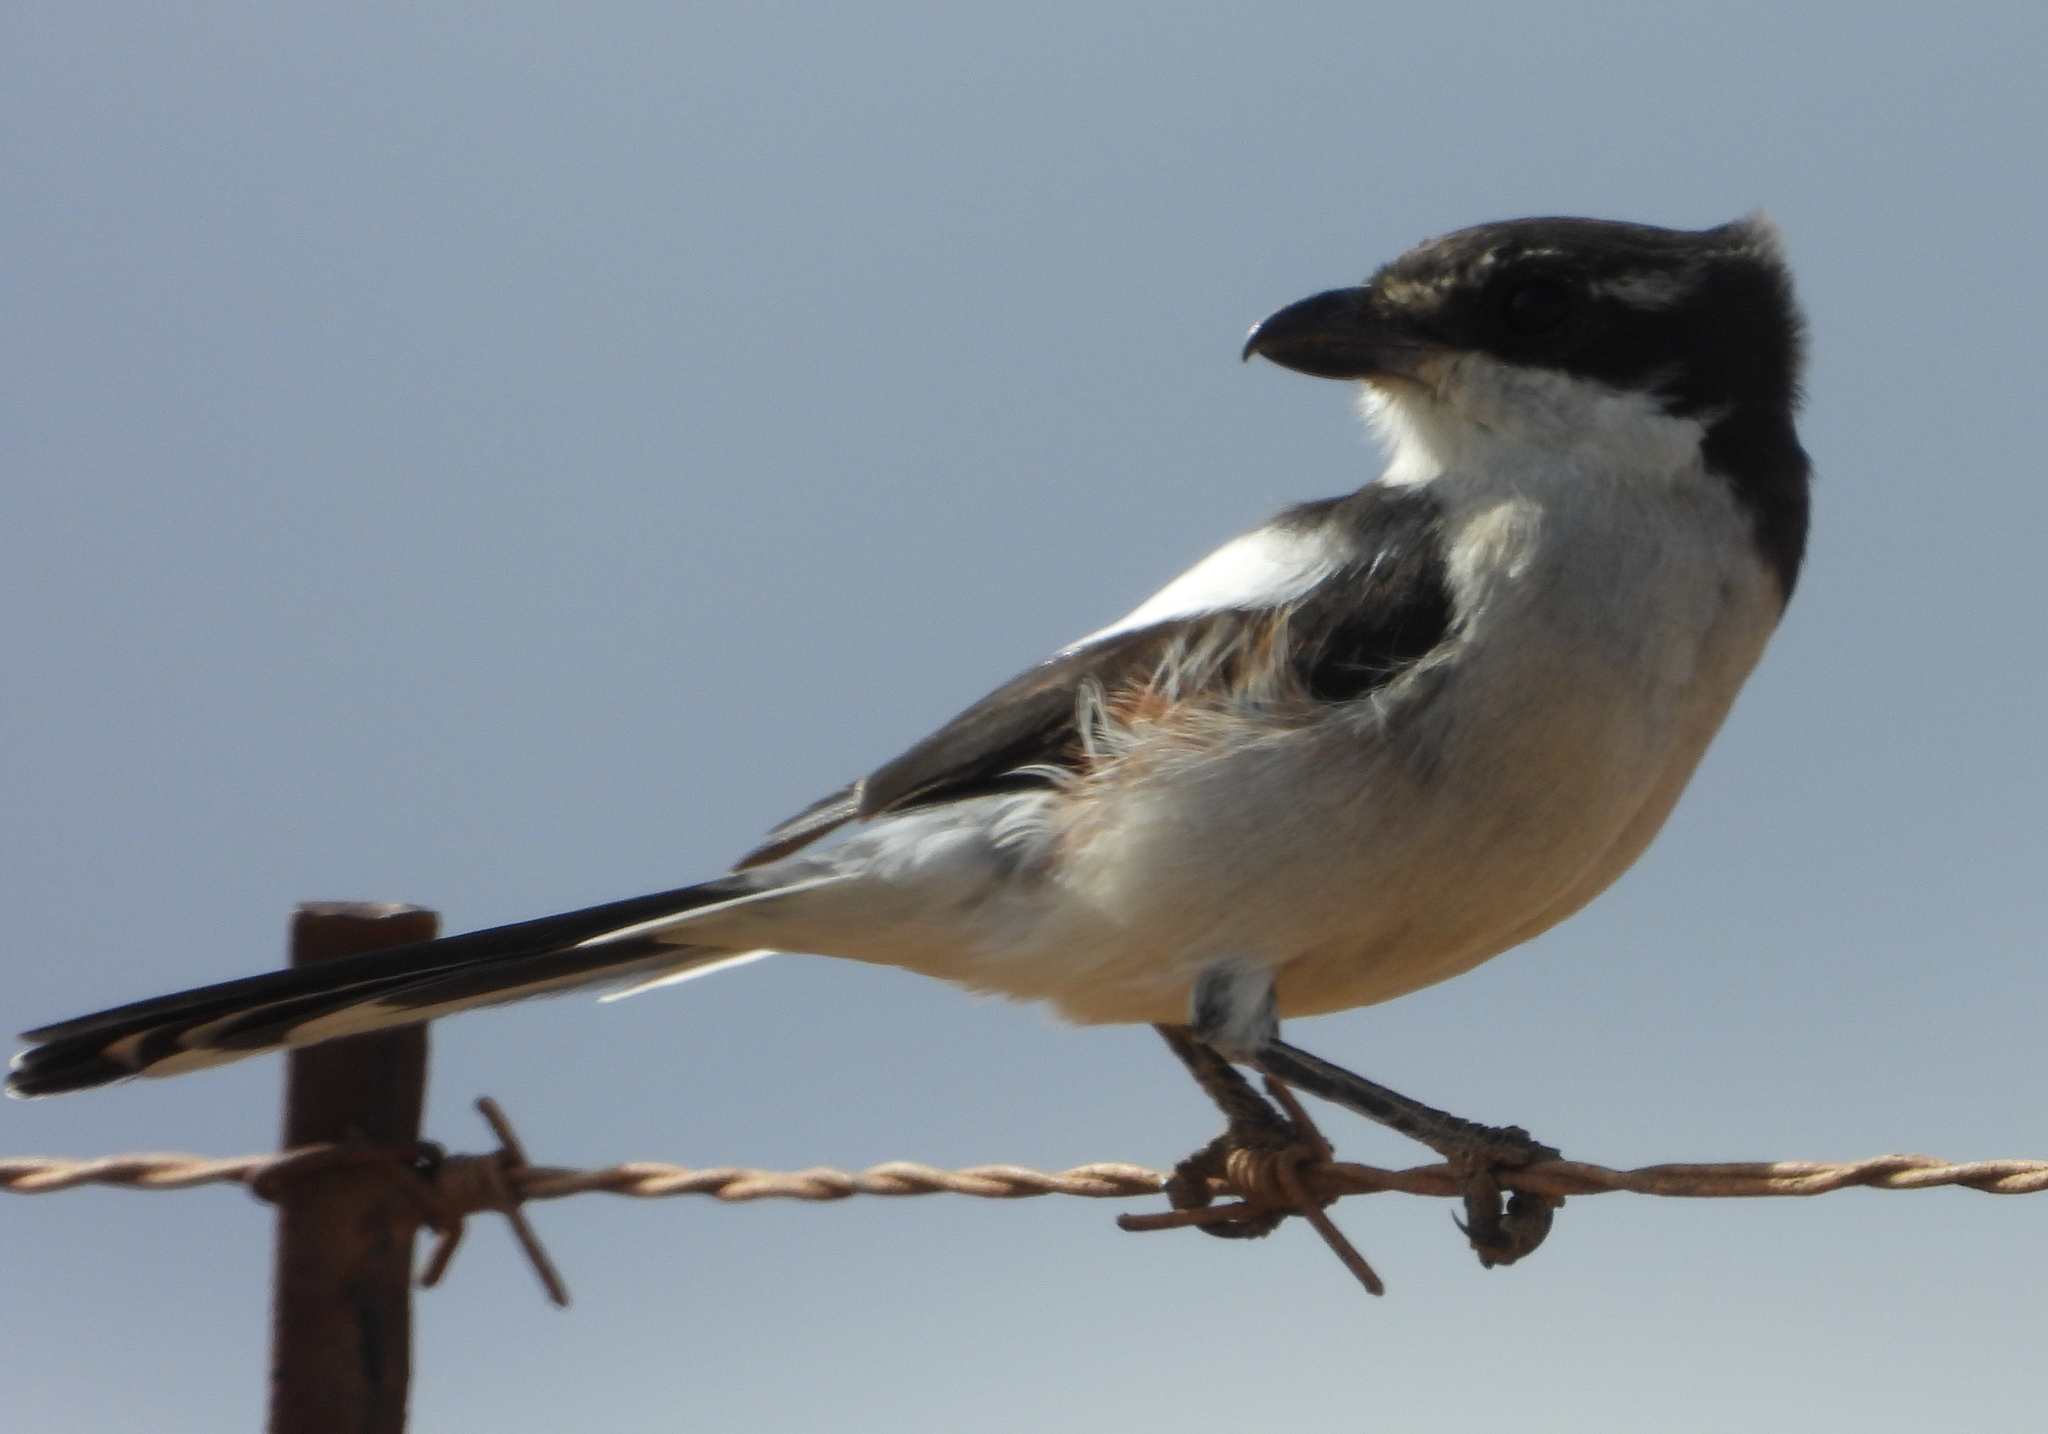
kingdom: Animalia
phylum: Chordata
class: Aves
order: Passeriformes
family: Laniidae
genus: Lanius
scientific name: Lanius collaris
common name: Southern fiscal
